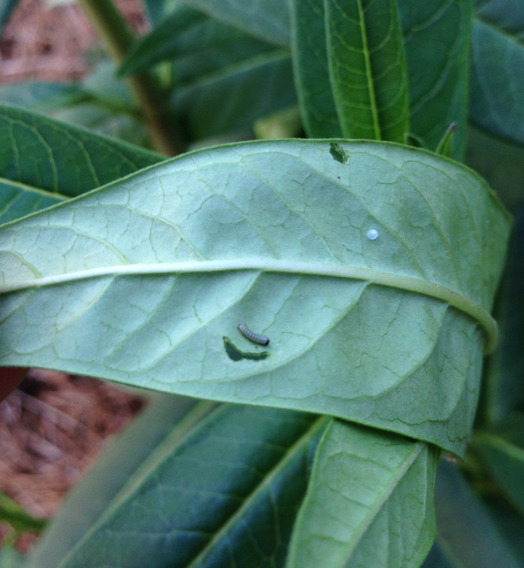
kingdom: Animalia
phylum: Arthropoda
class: Insecta
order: Lepidoptera
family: Nymphalidae
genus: Danaus
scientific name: Danaus plexippus
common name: Monarch
